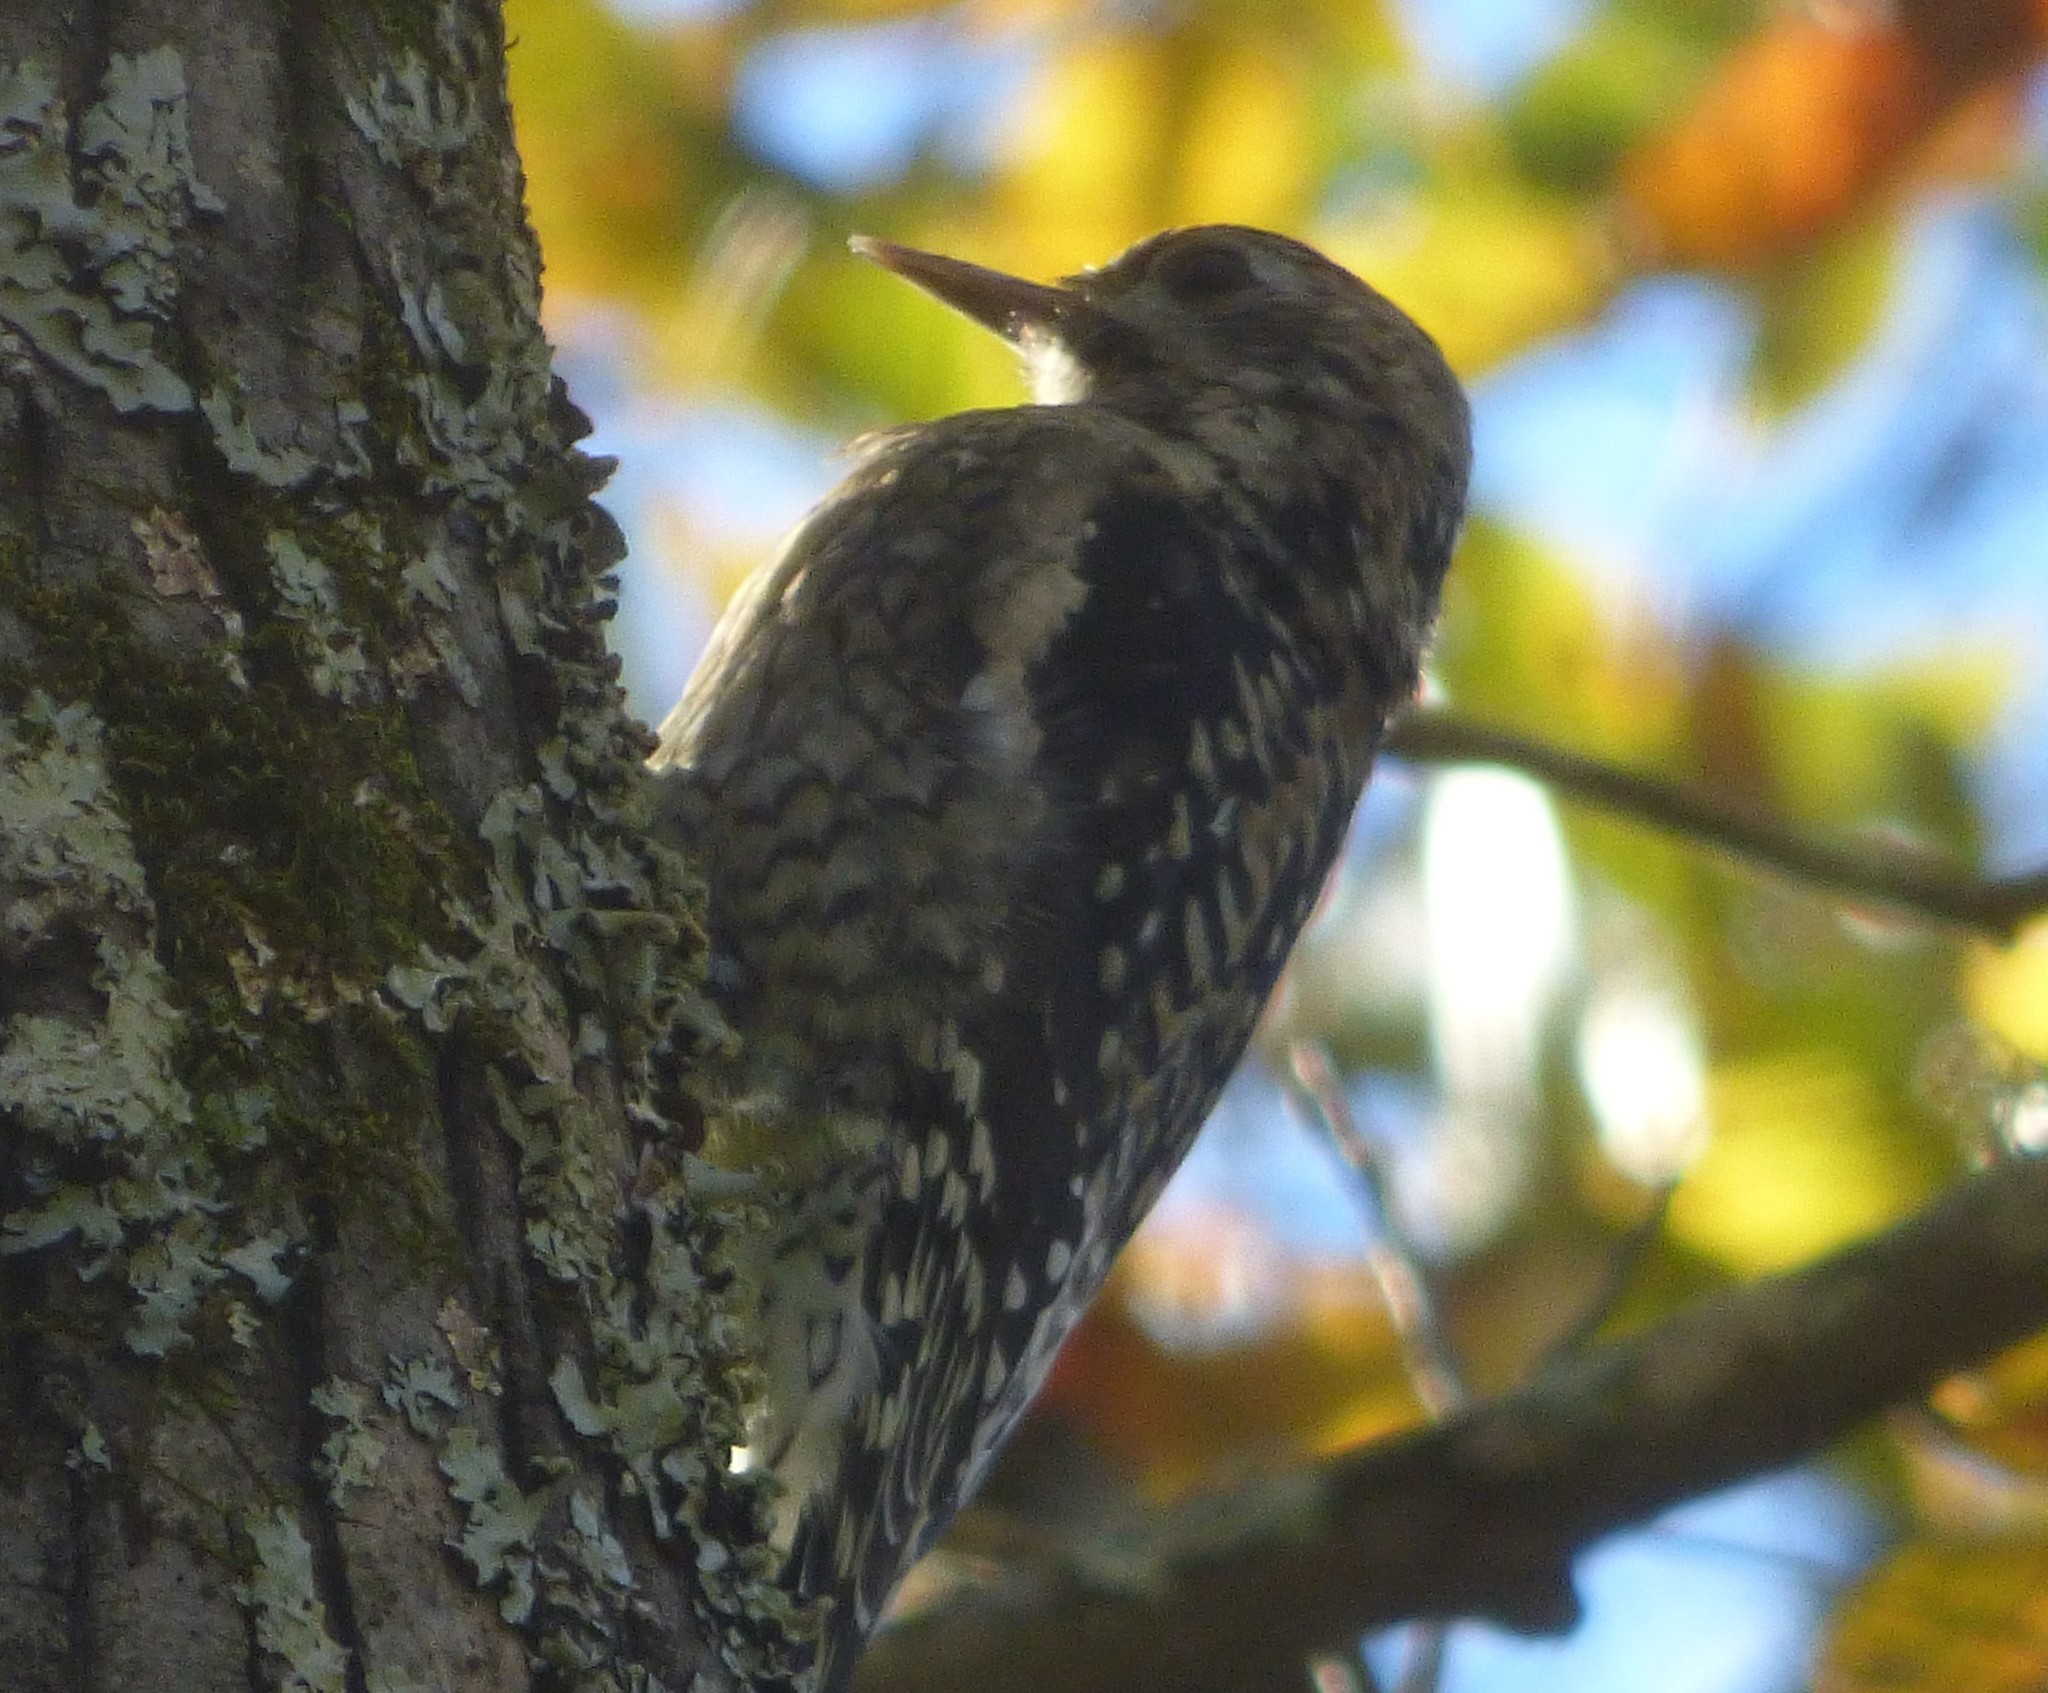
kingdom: Animalia
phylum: Chordata
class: Aves
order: Piciformes
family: Picidae
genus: Sphyrapicus
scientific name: Sphyrapicus varius
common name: Yellow-bellied sapsucker
